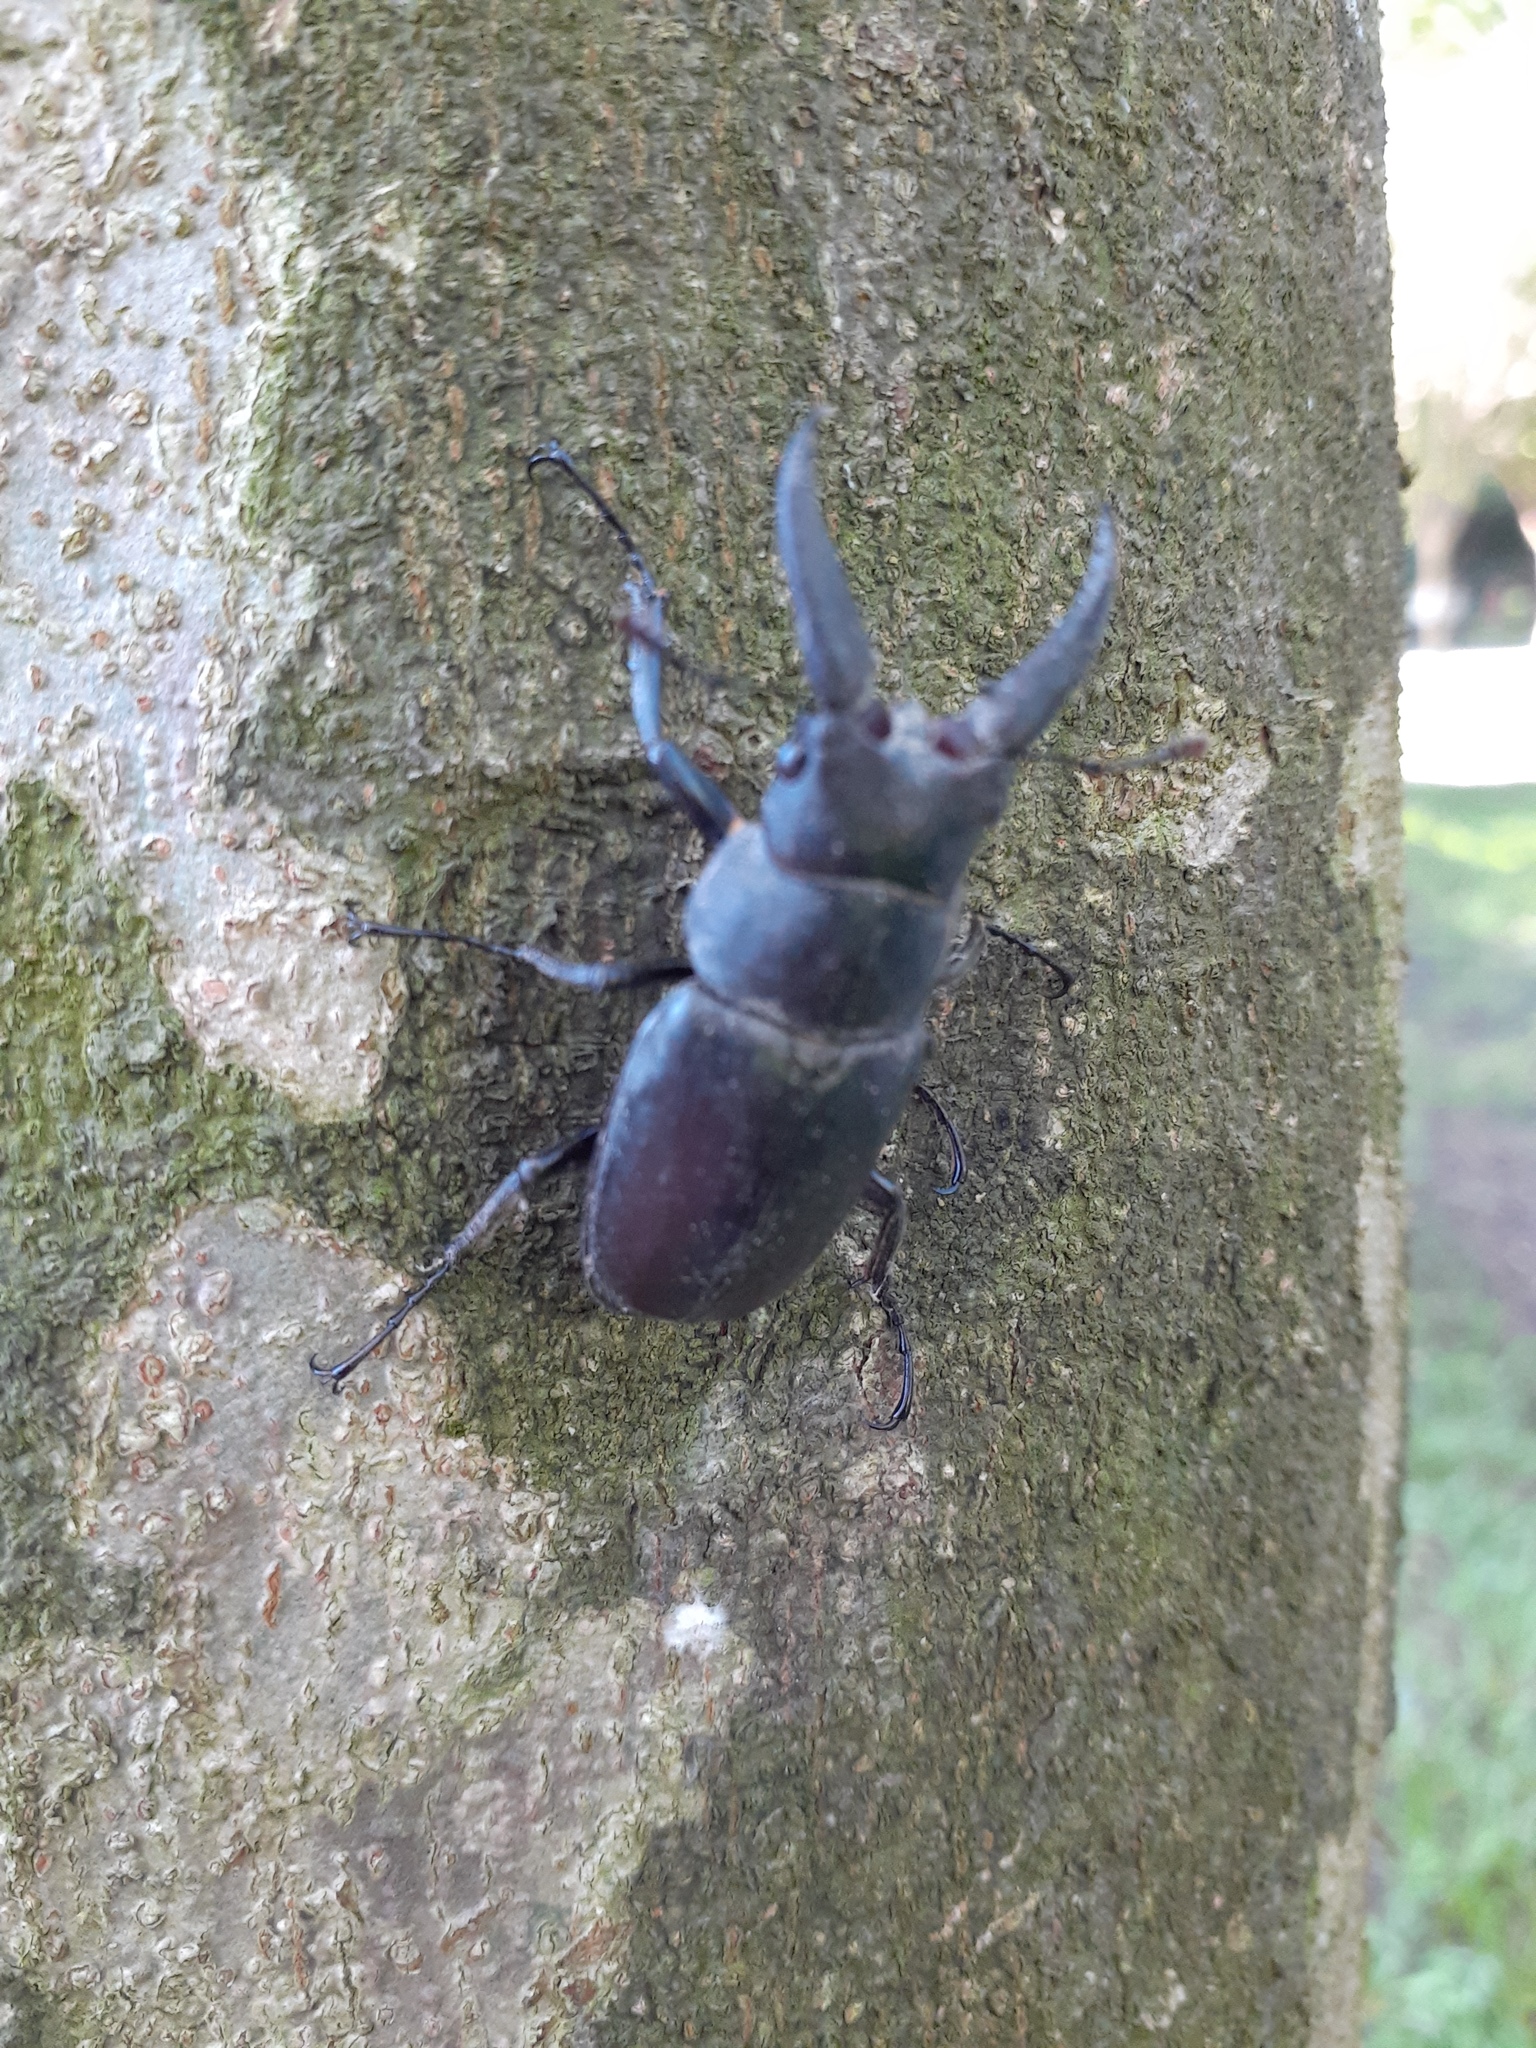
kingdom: Animalia
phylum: Arthropoda
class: Insecta
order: Coleoptera
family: Lucanidae
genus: Prosopocoilus
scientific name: Prosopocoilus motschulskii
